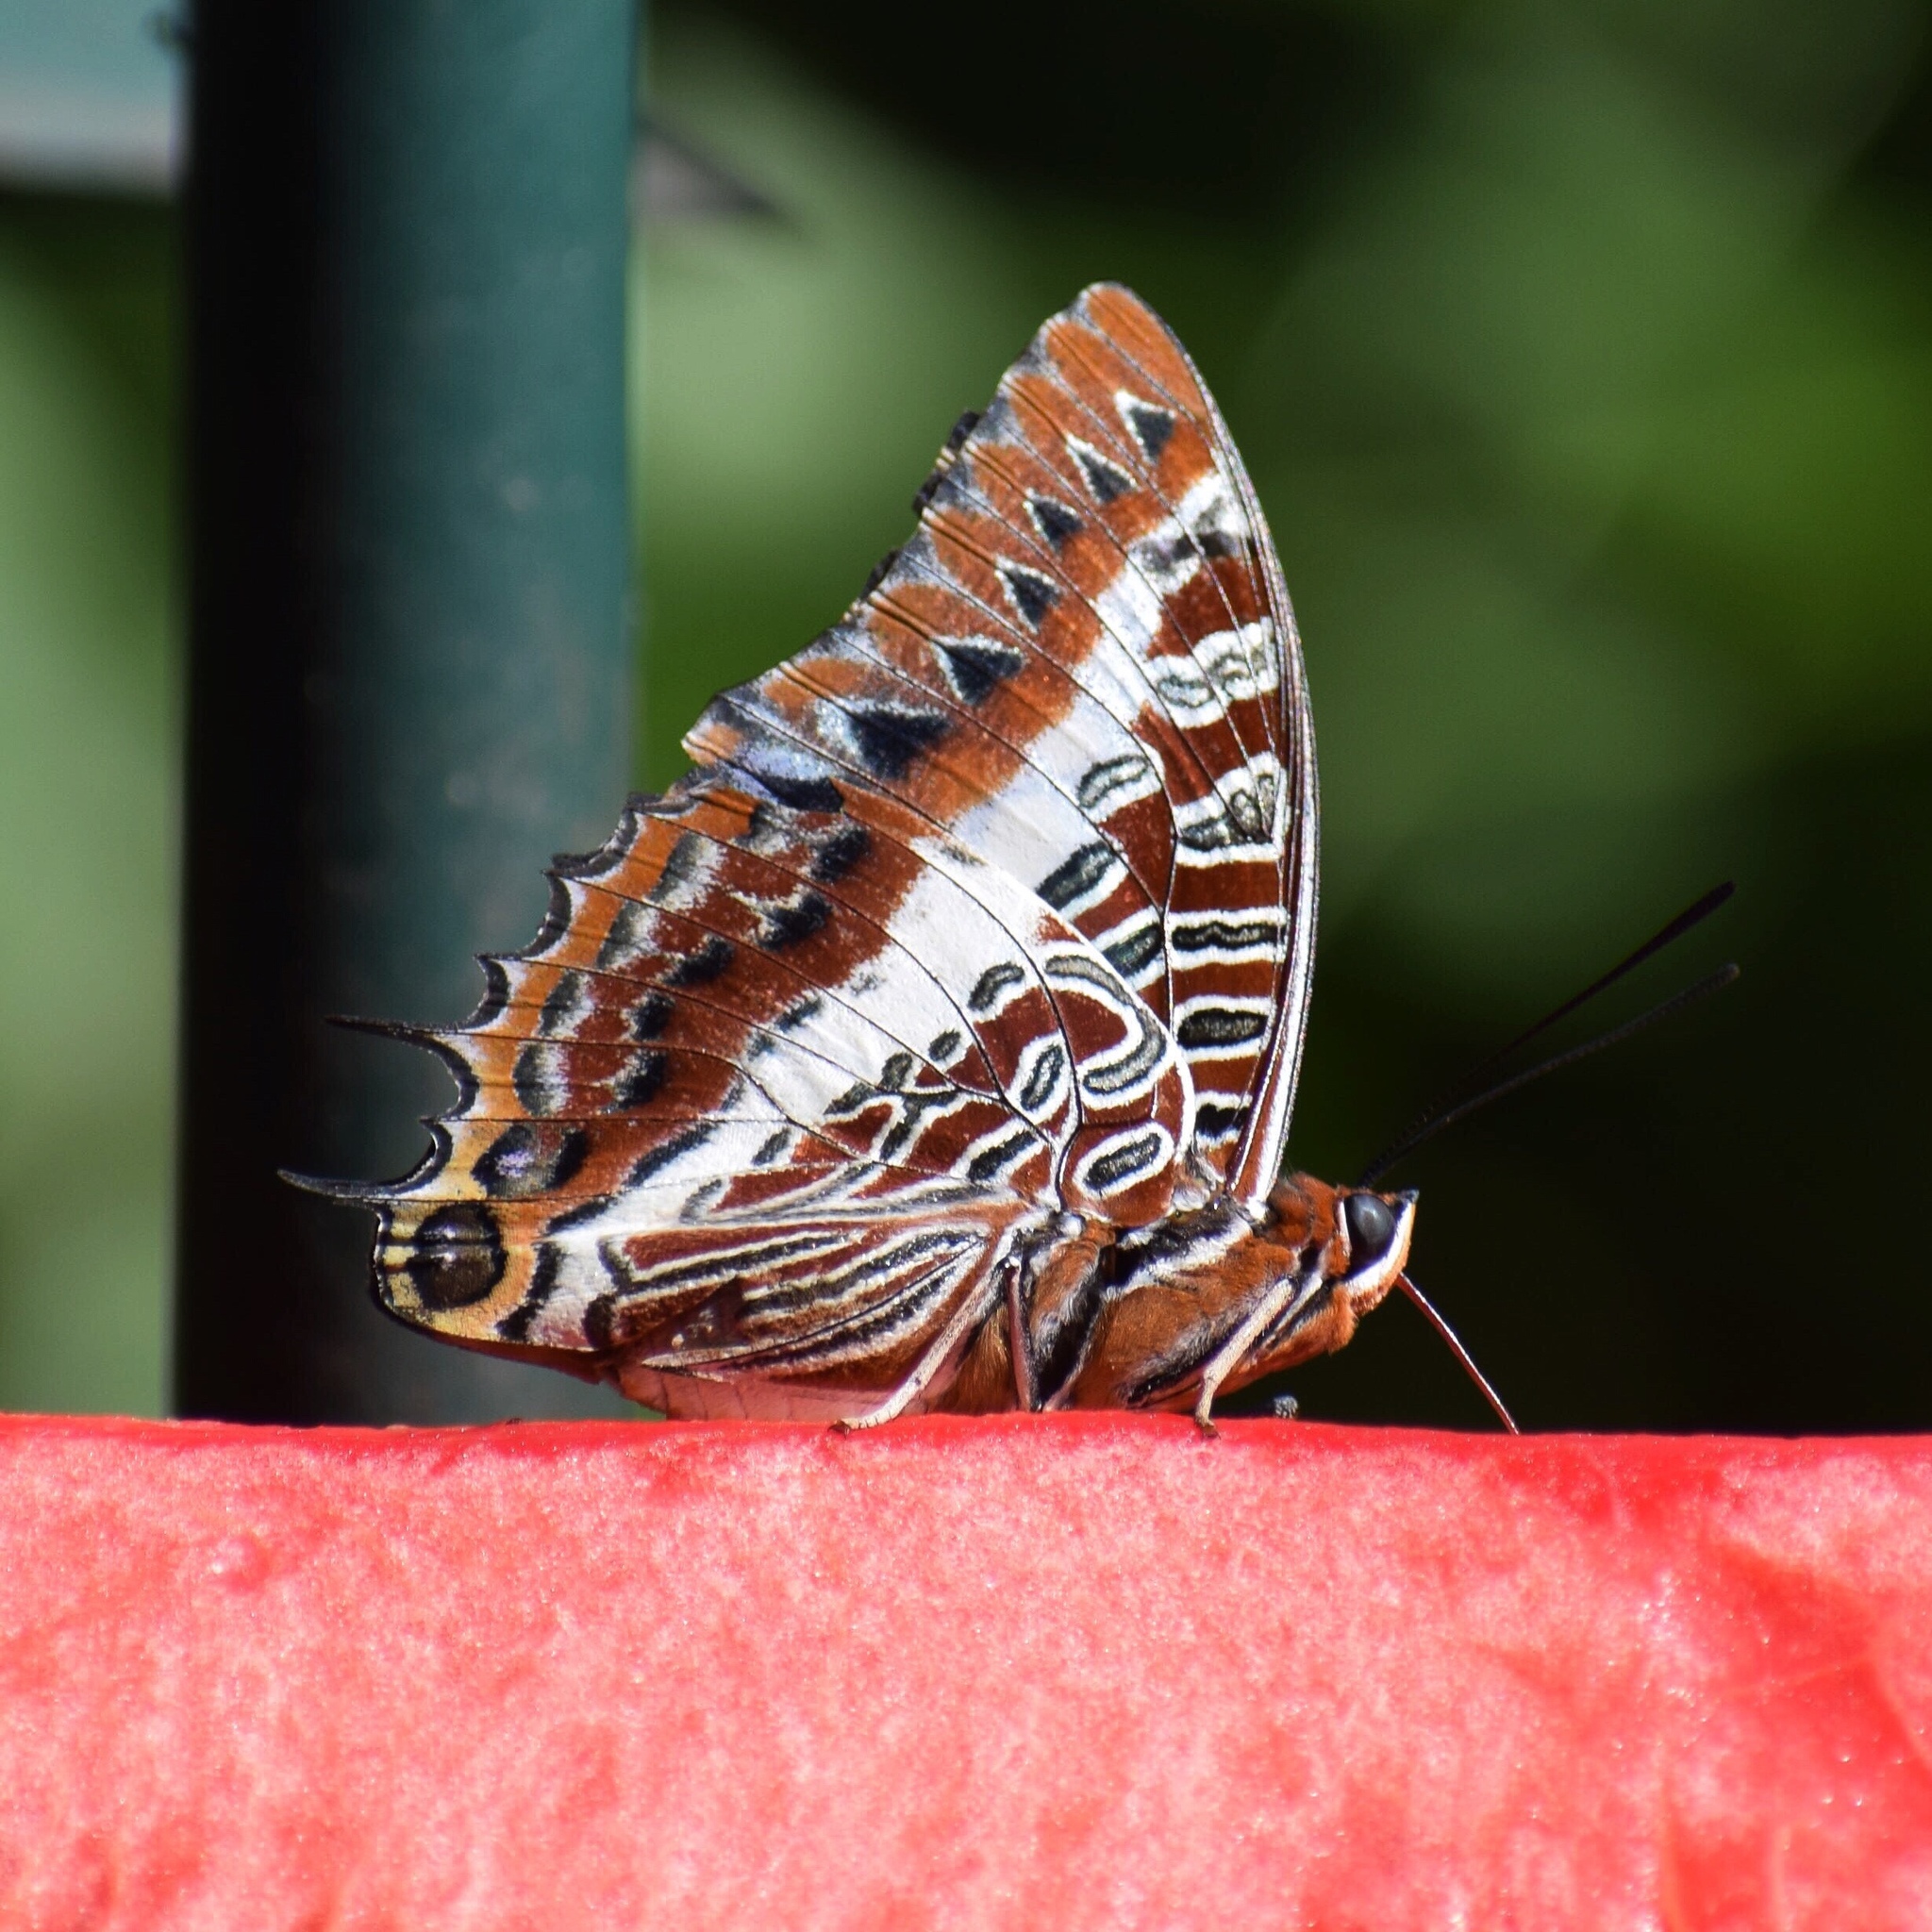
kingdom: Animalia
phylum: Arthropoda
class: Insecta
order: Lepidoptera
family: Nymphalidae
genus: Charaxes
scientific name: Charaxes brutus
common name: White-barred charaxes
